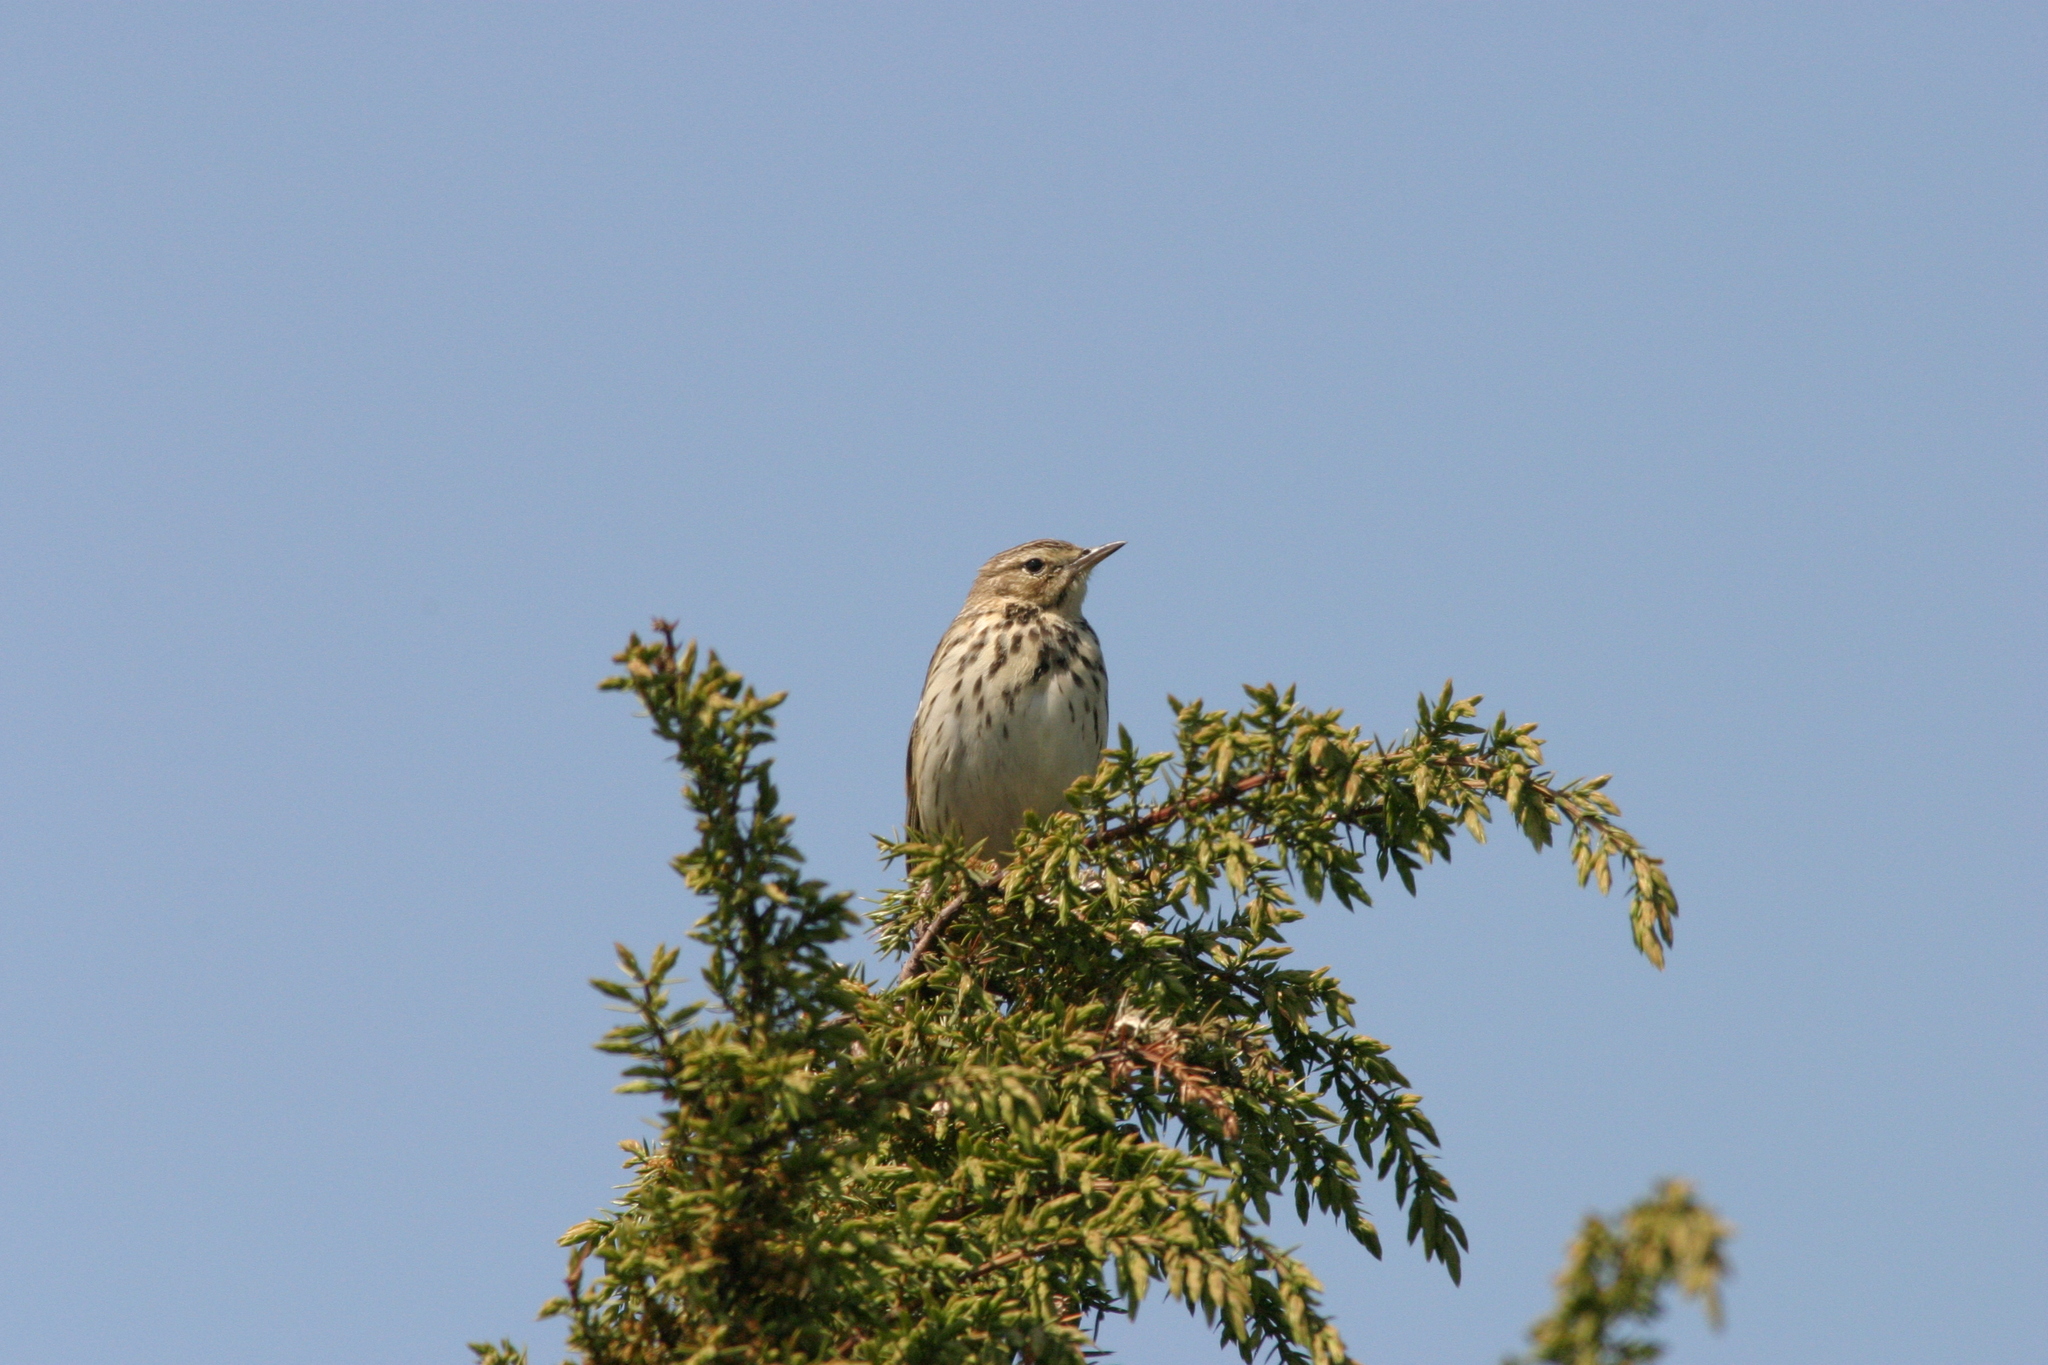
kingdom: Animalia
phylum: Chordata
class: Aves
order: Passeriformes
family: Motacillidae
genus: Anthus
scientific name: Anthus trivialis
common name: Tree pipit
